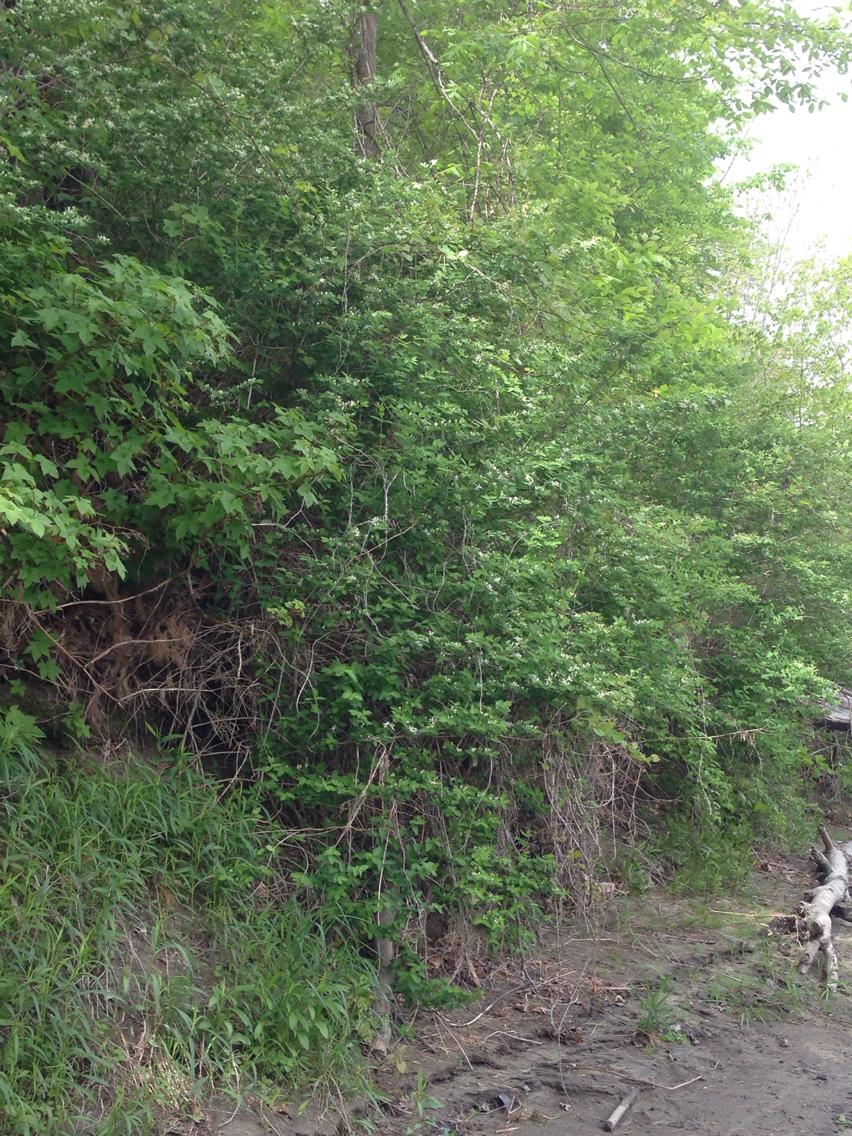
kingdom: Plantae
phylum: Tracheophyta
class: Magnoliopsida
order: Dipsacales
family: Caprifoliaceae
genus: Lonicera
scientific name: Lonicera morrowii
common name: Morrow's honeysuckle
